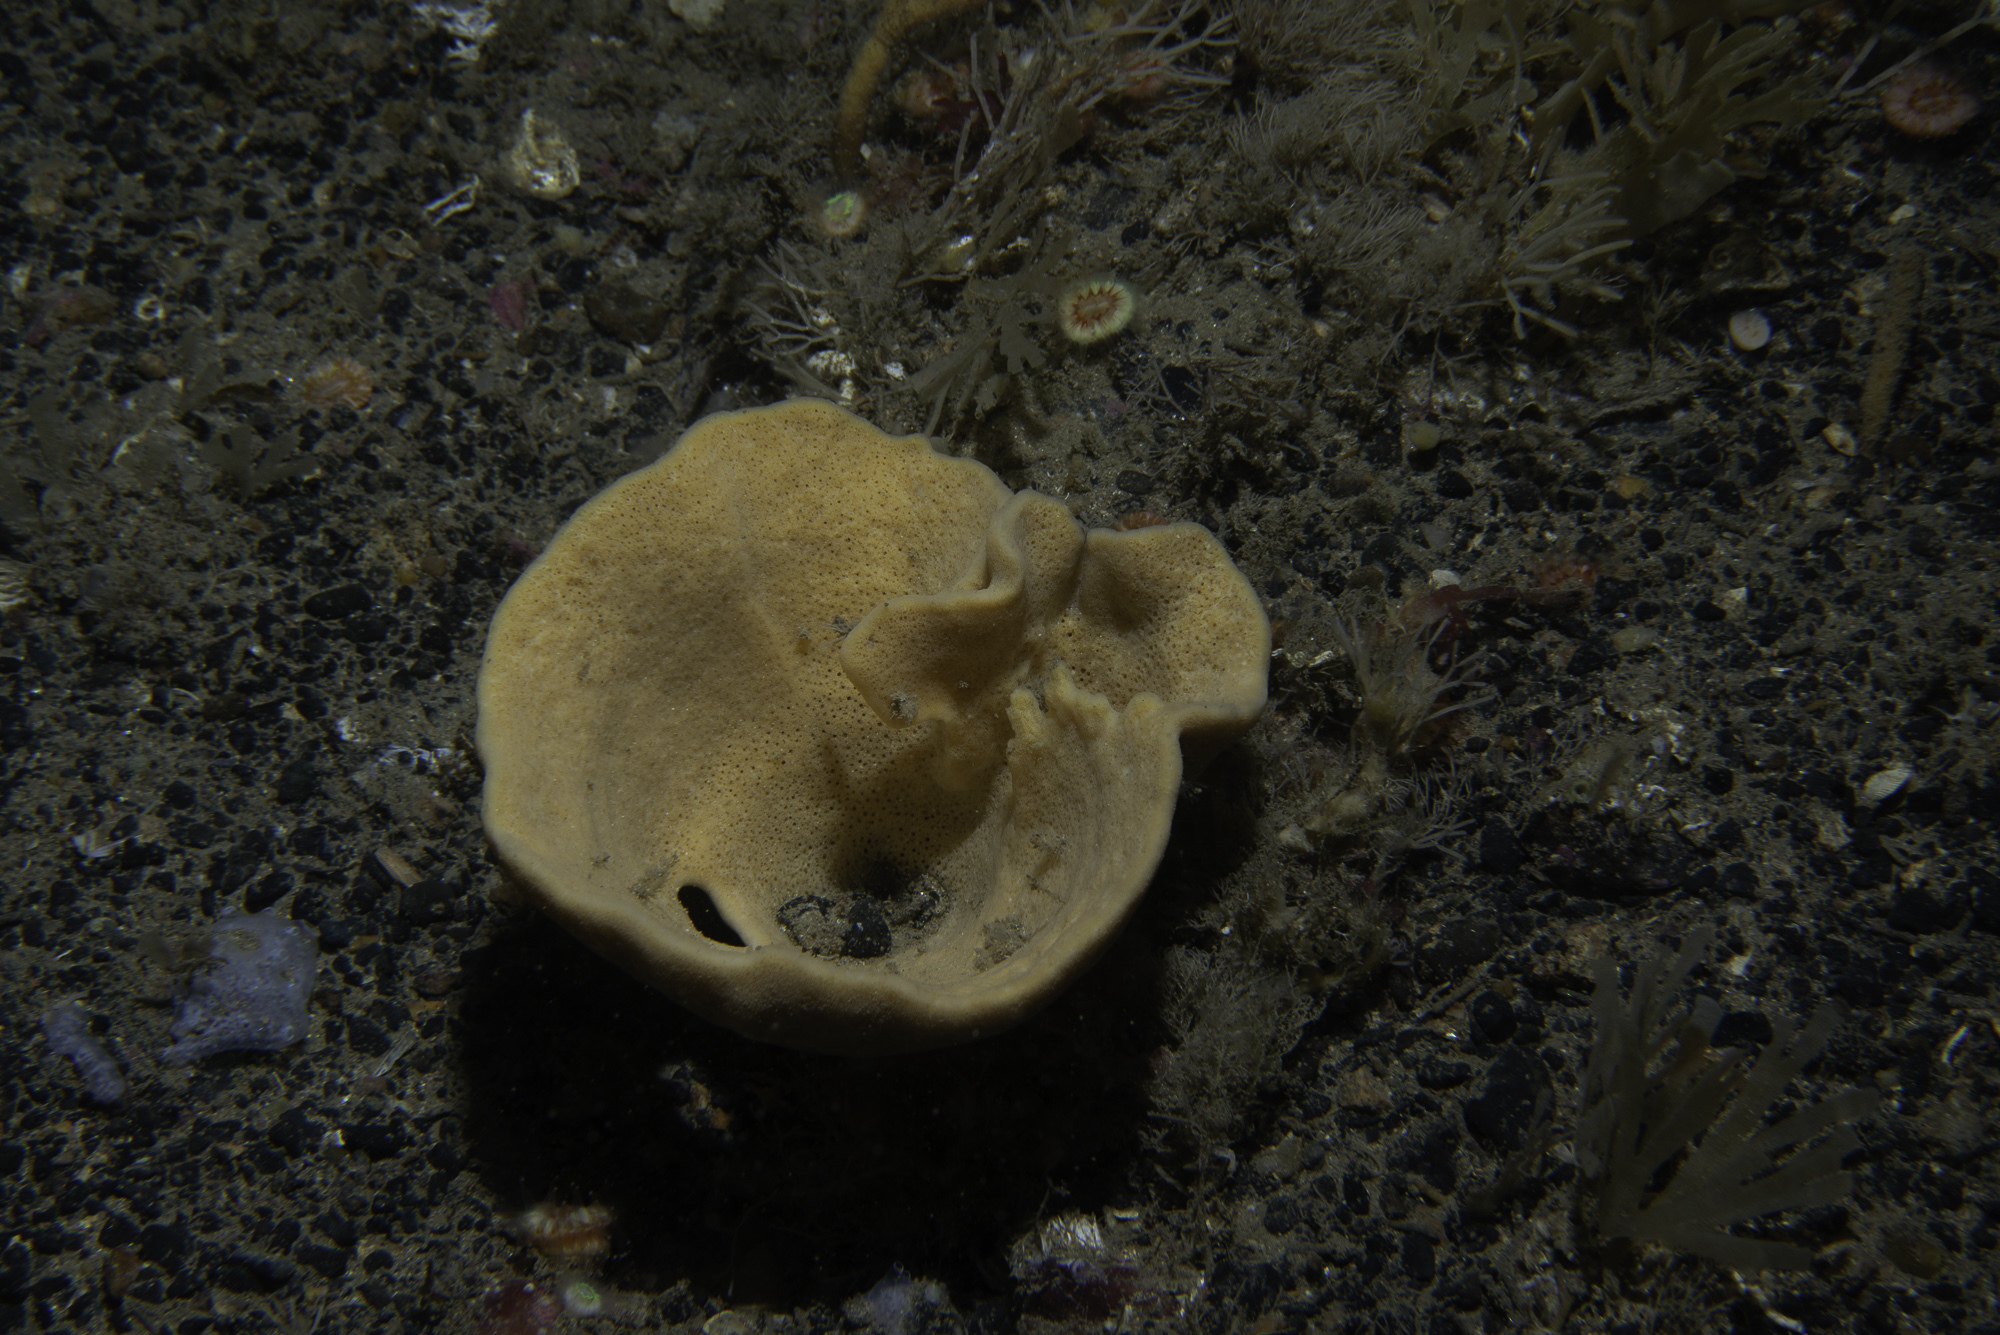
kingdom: Animalia
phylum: Porifera
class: Demospongiae
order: Axinellida
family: Axinellidae
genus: Axinella
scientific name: Axinella infundibuliformis
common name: North atlantic cup sponge
